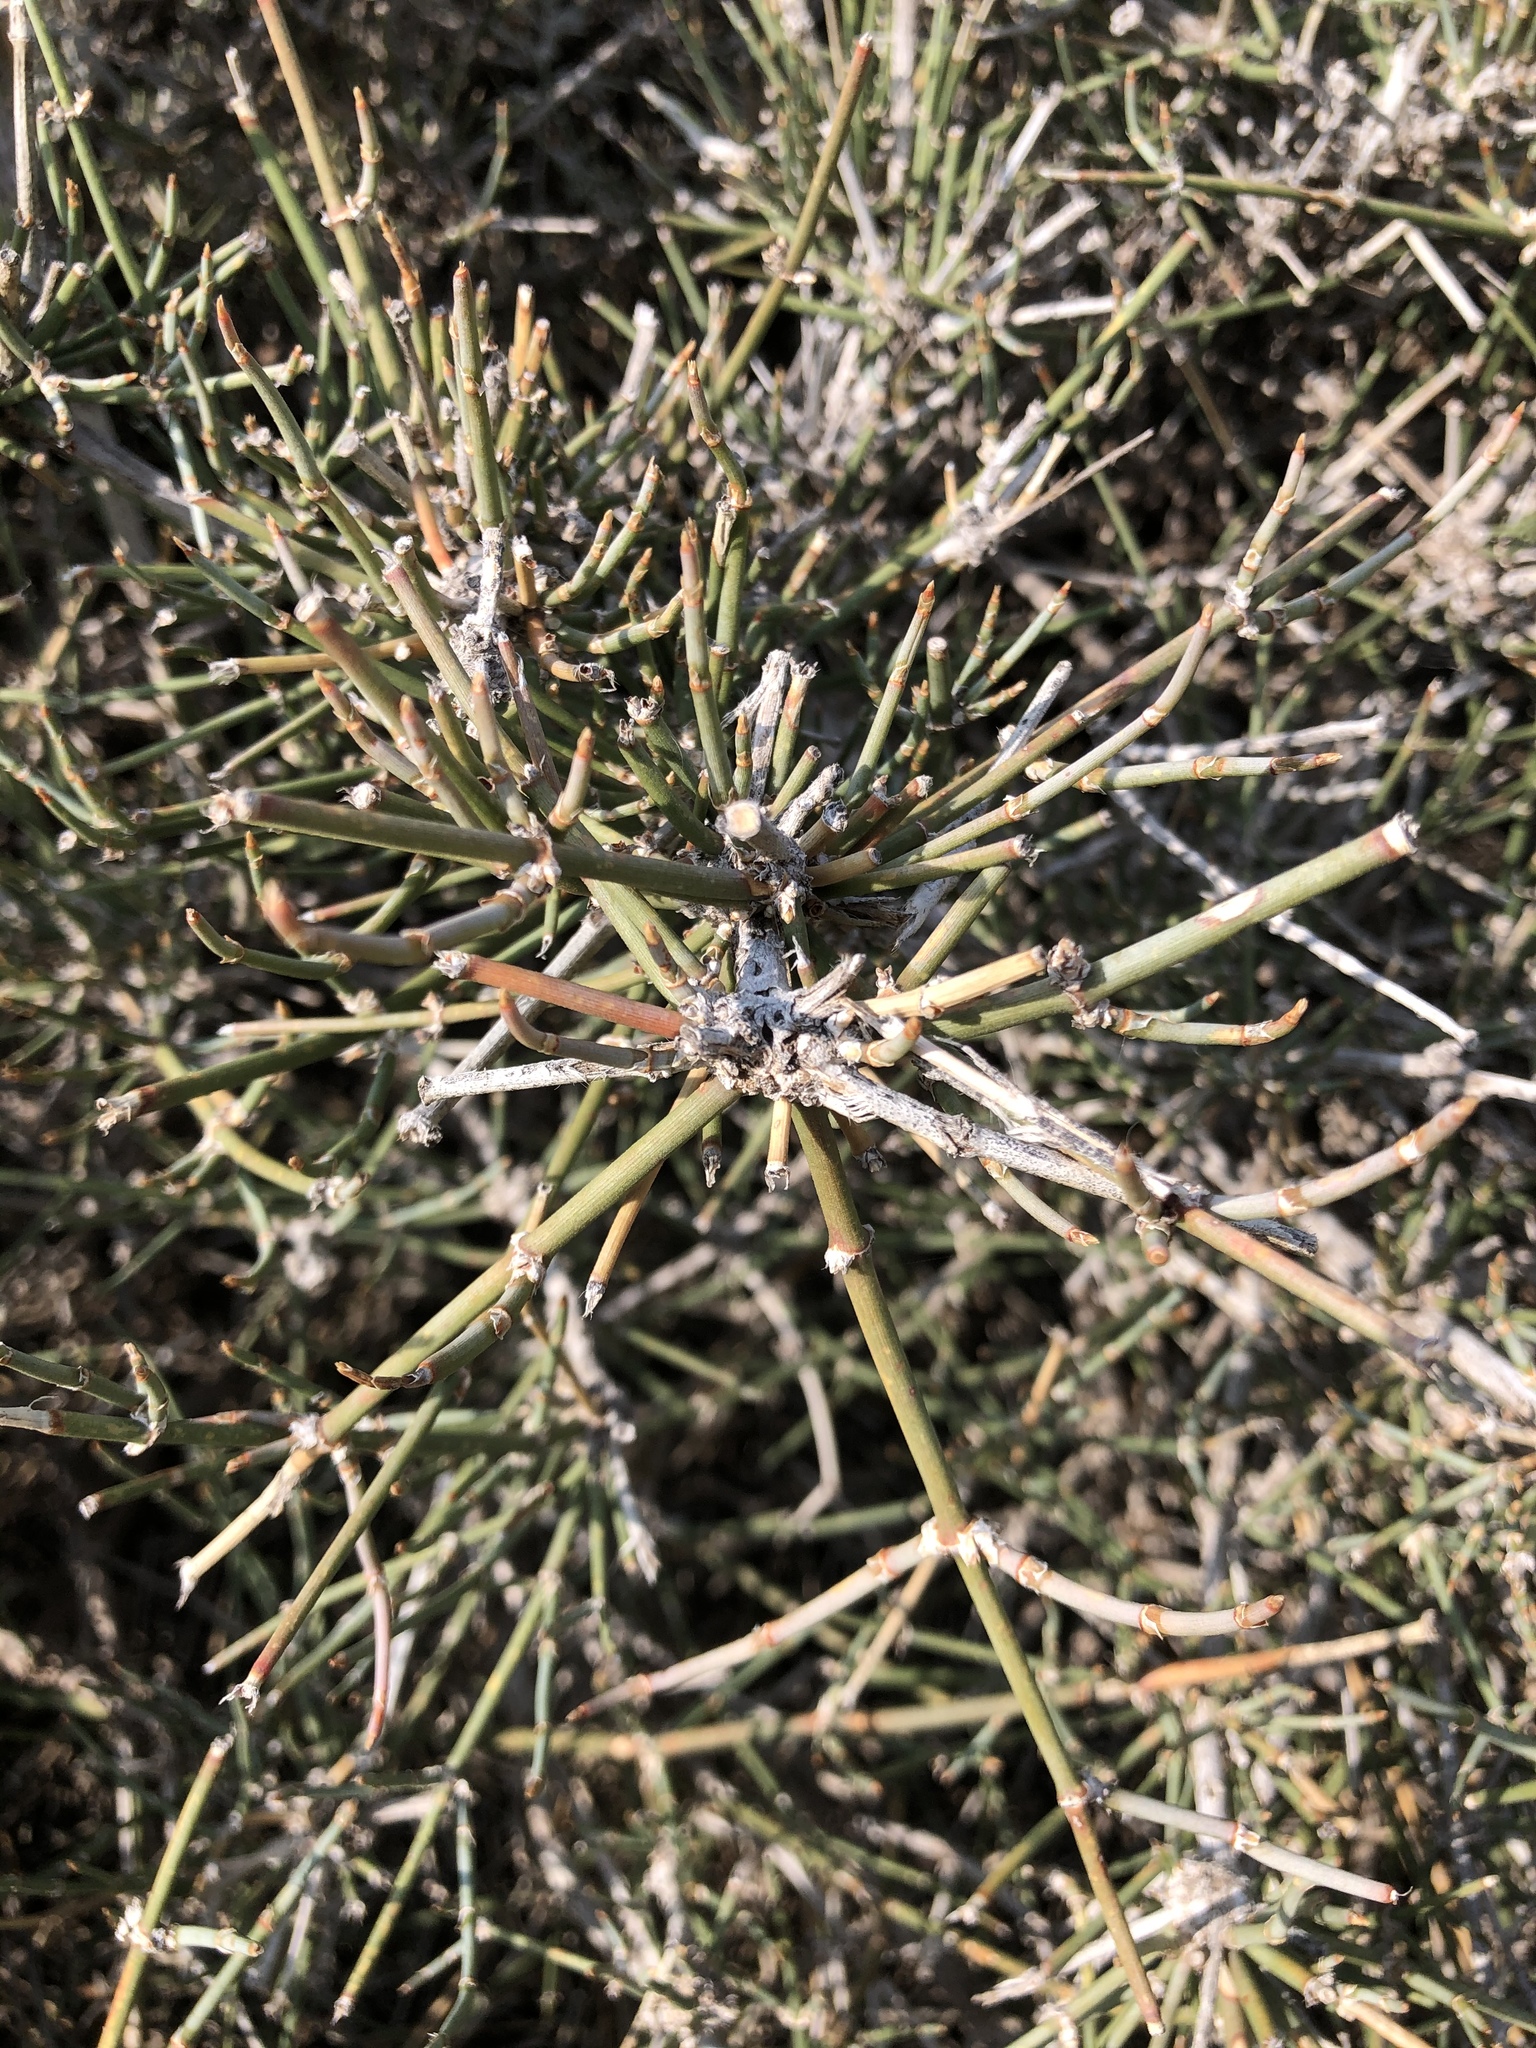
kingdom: Plantae
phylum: Tracheophyta
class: Gnetopsida
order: Ephedrales
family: Ephedraceae
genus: Ephedra
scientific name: Ephedra antisyphilitica
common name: Clipweed
